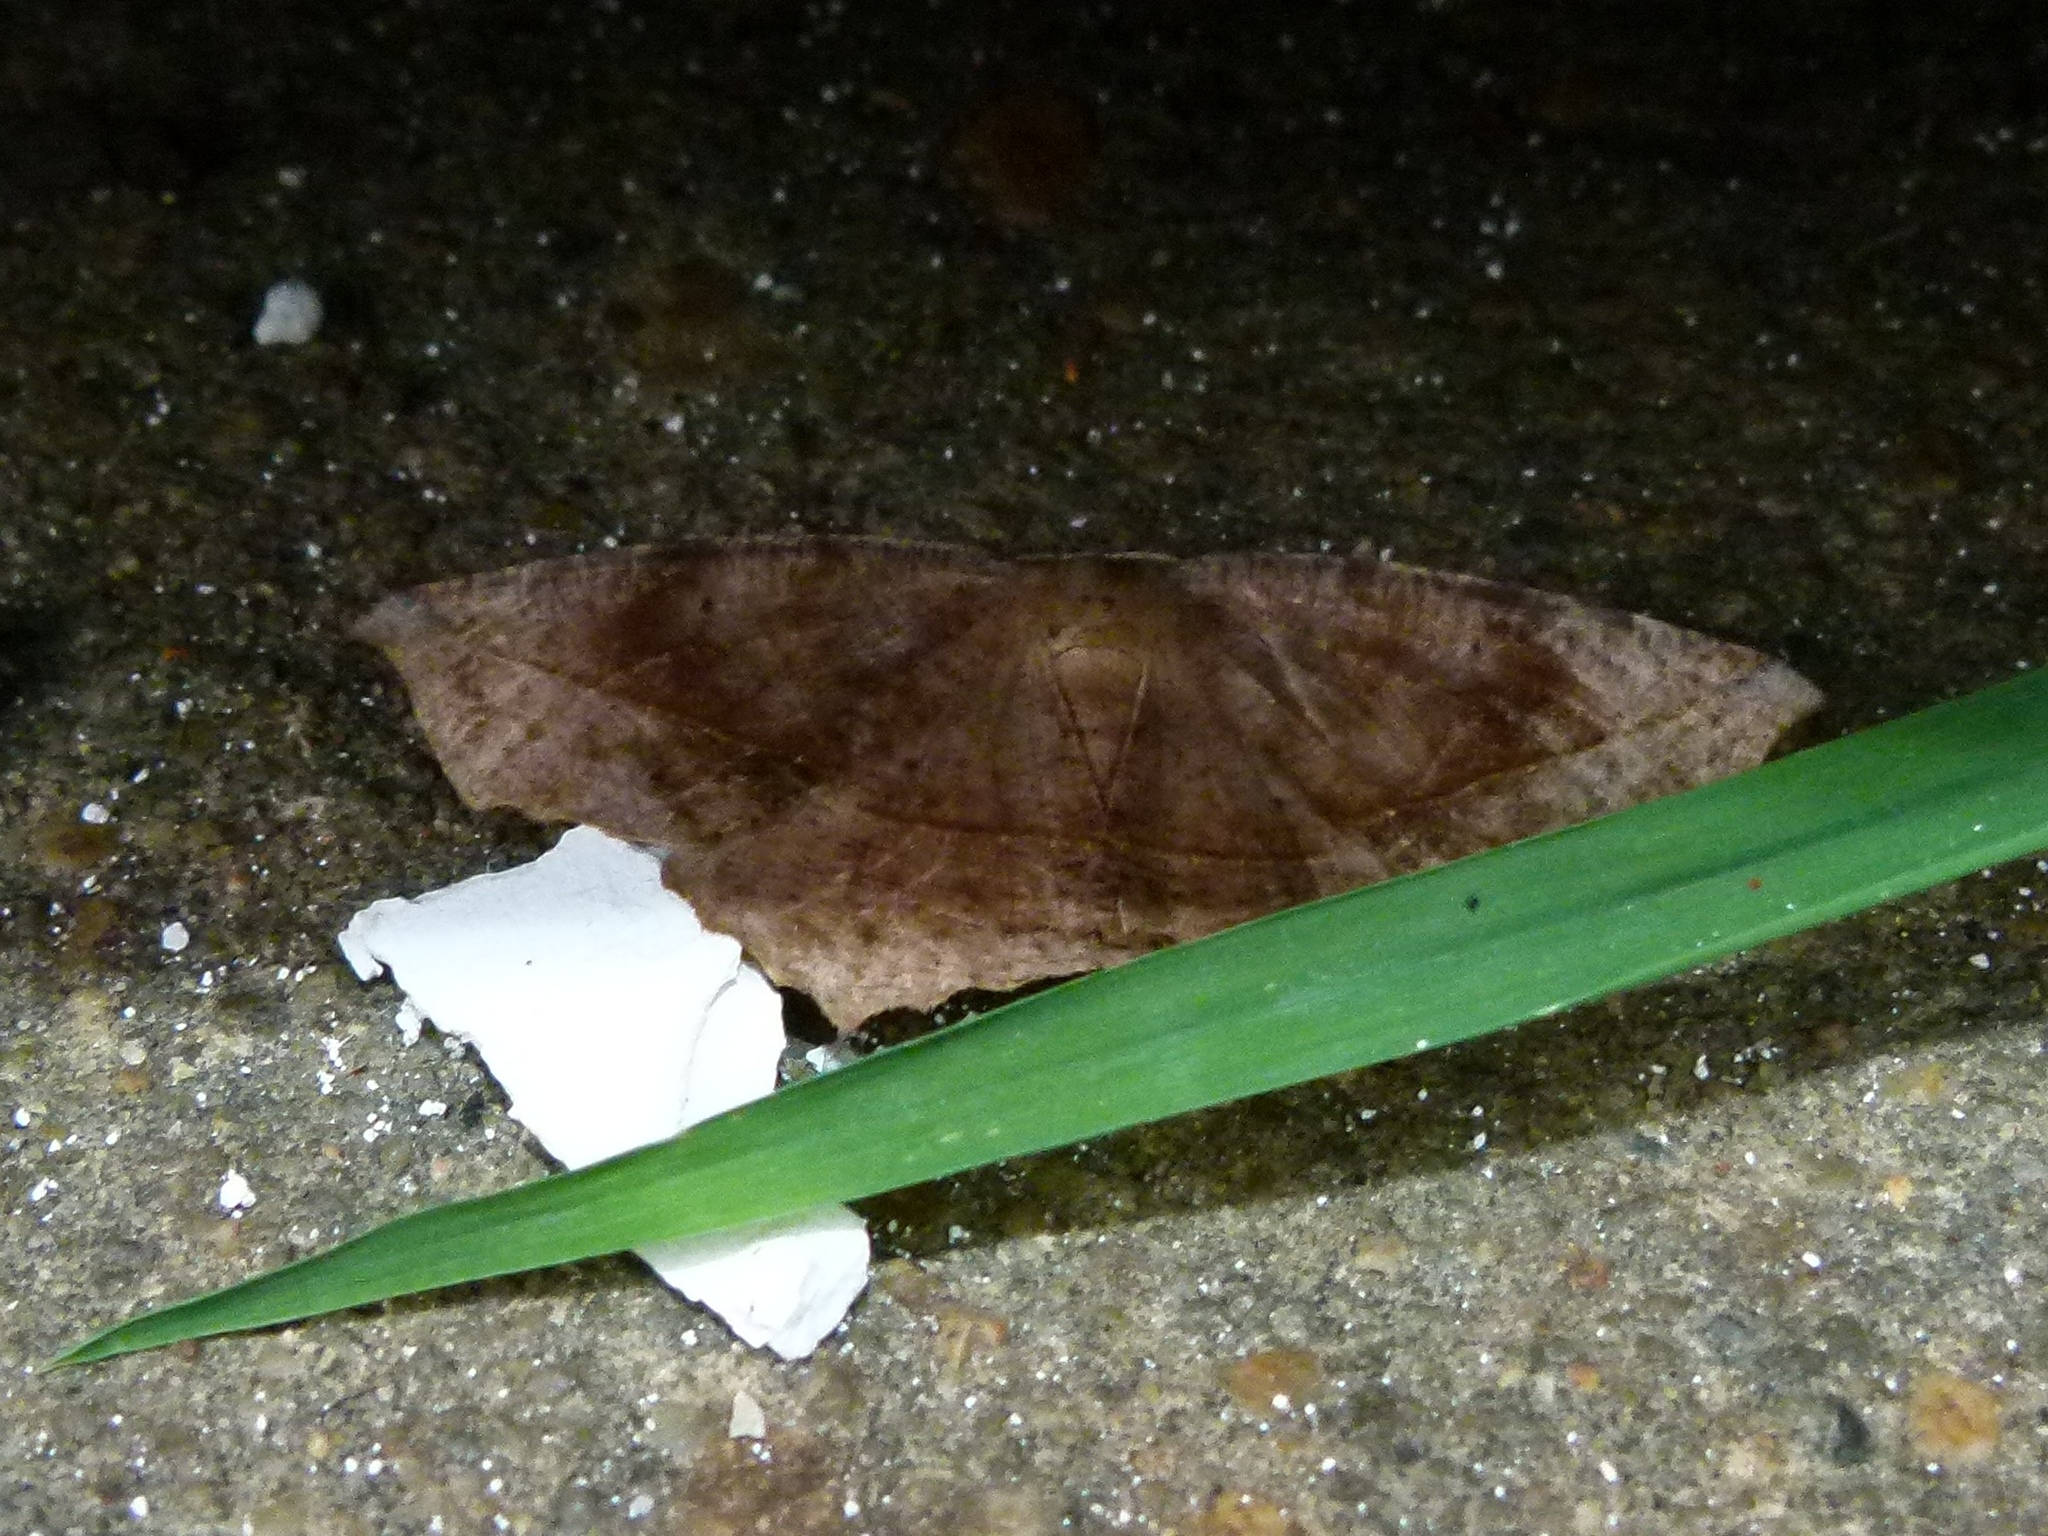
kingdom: Animalia
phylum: Arthropoda
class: Insecta
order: Lepidoptera
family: Geometridae
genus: Eutrapela
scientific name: Eutrapela clemataria
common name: Curved-toothed geometer
